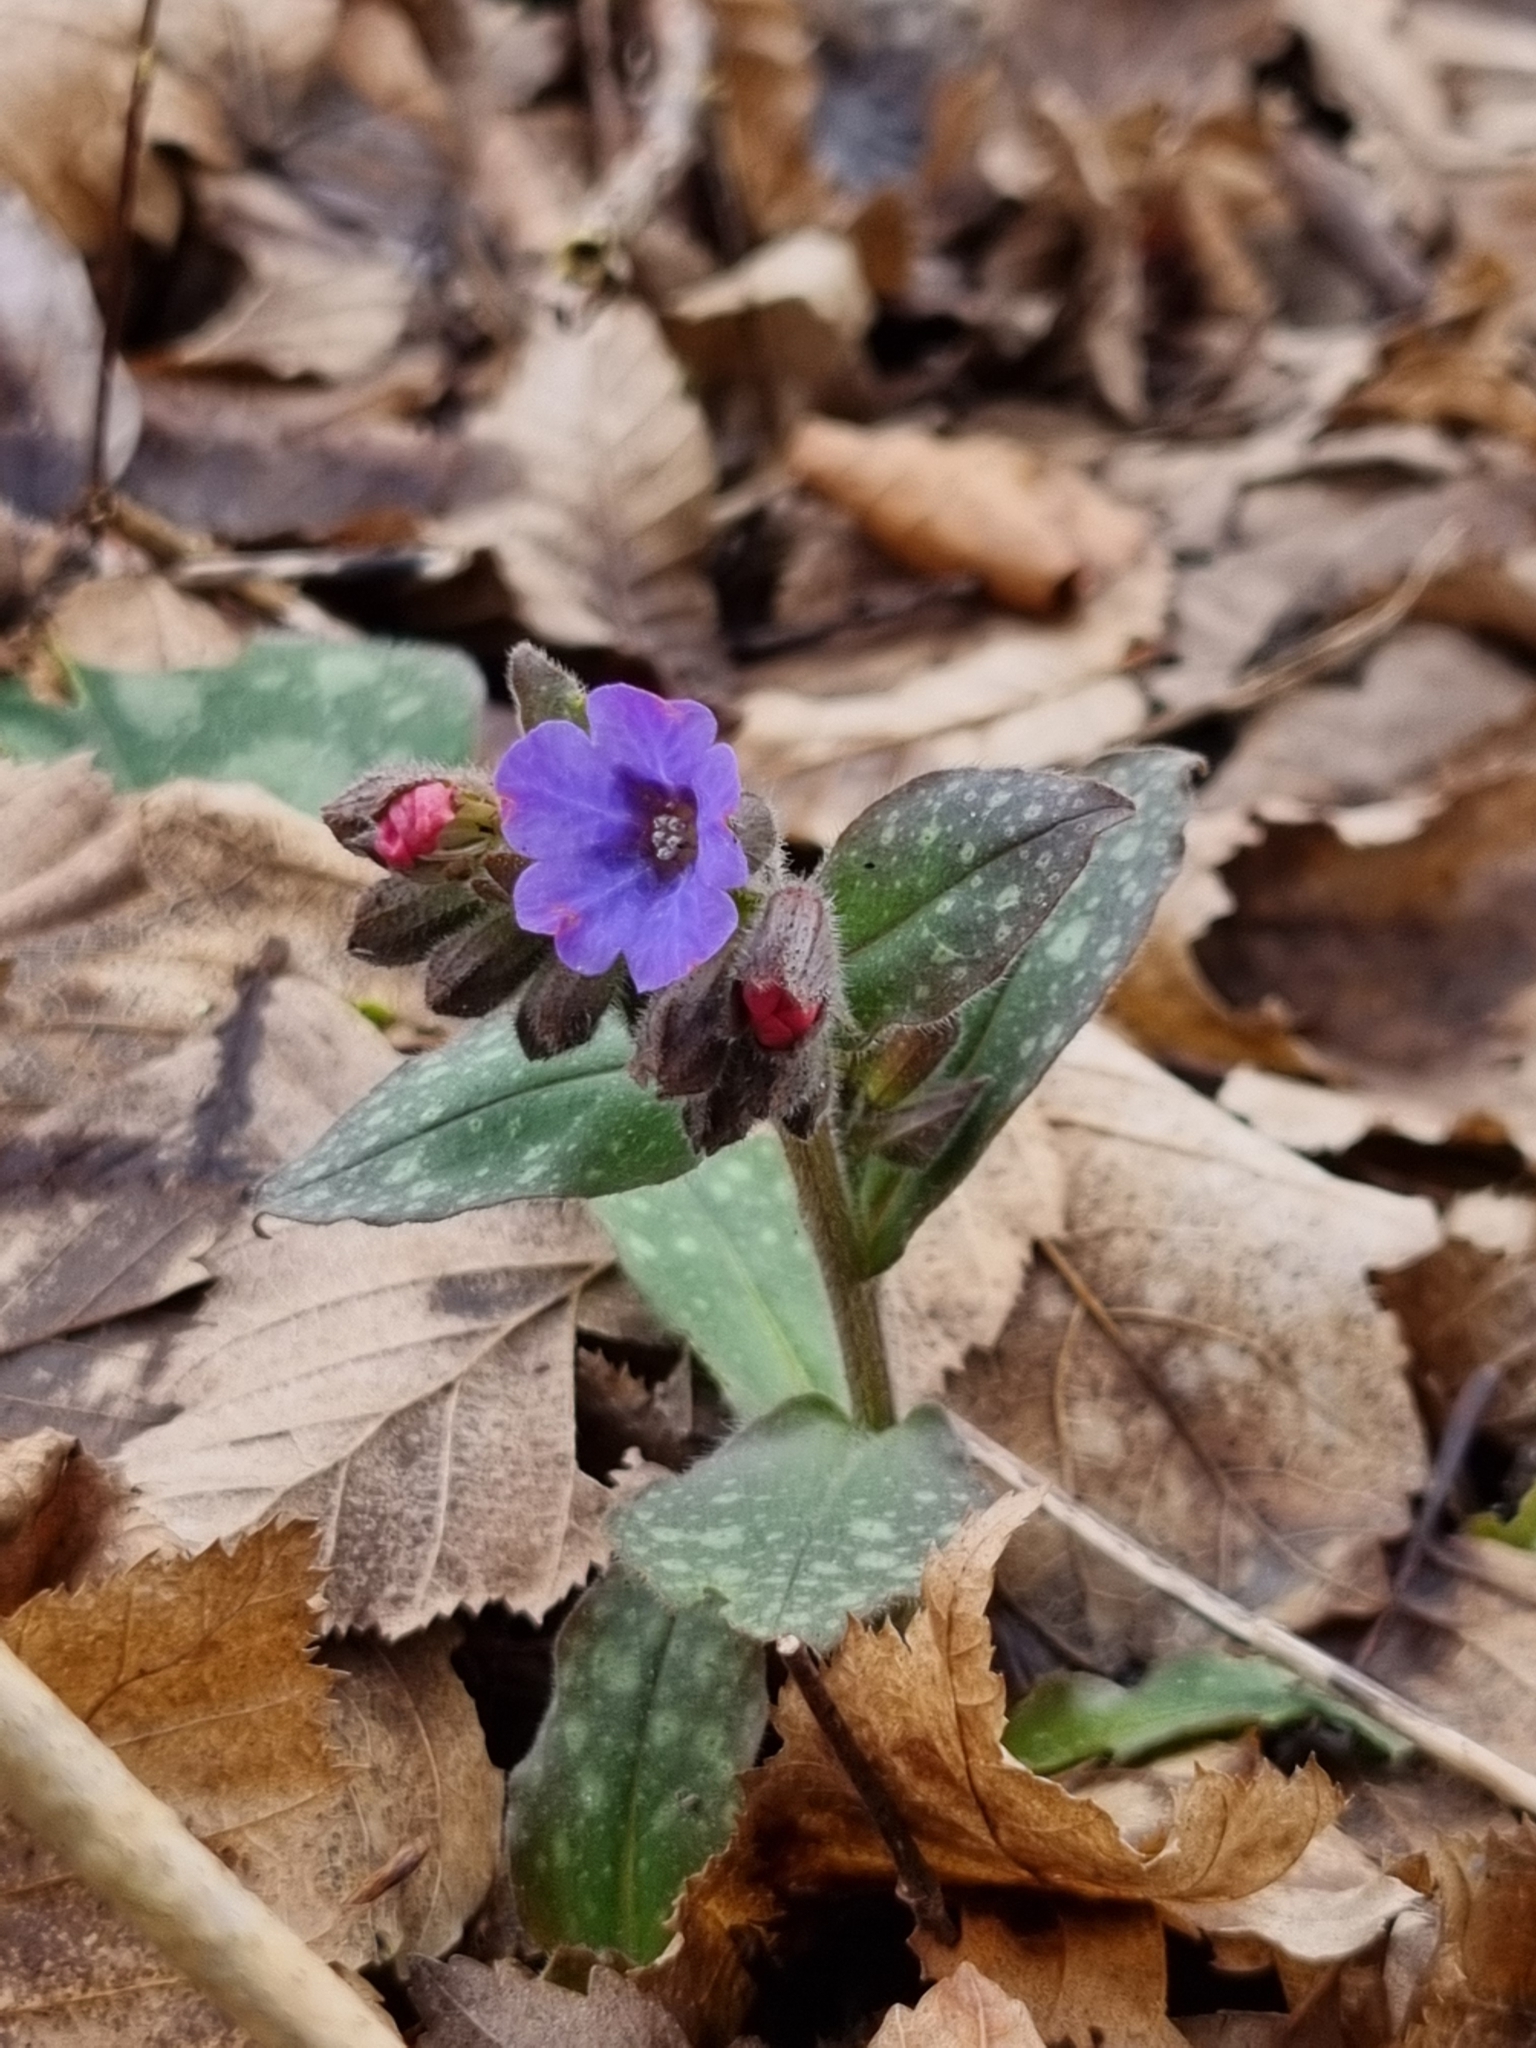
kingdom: Plantae
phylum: Tracheophyta
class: Magnoliopsida
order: Boraginales
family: Boraginaceae
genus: Pulmonaria
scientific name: Pulmonaria officinalis
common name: Lungwort
